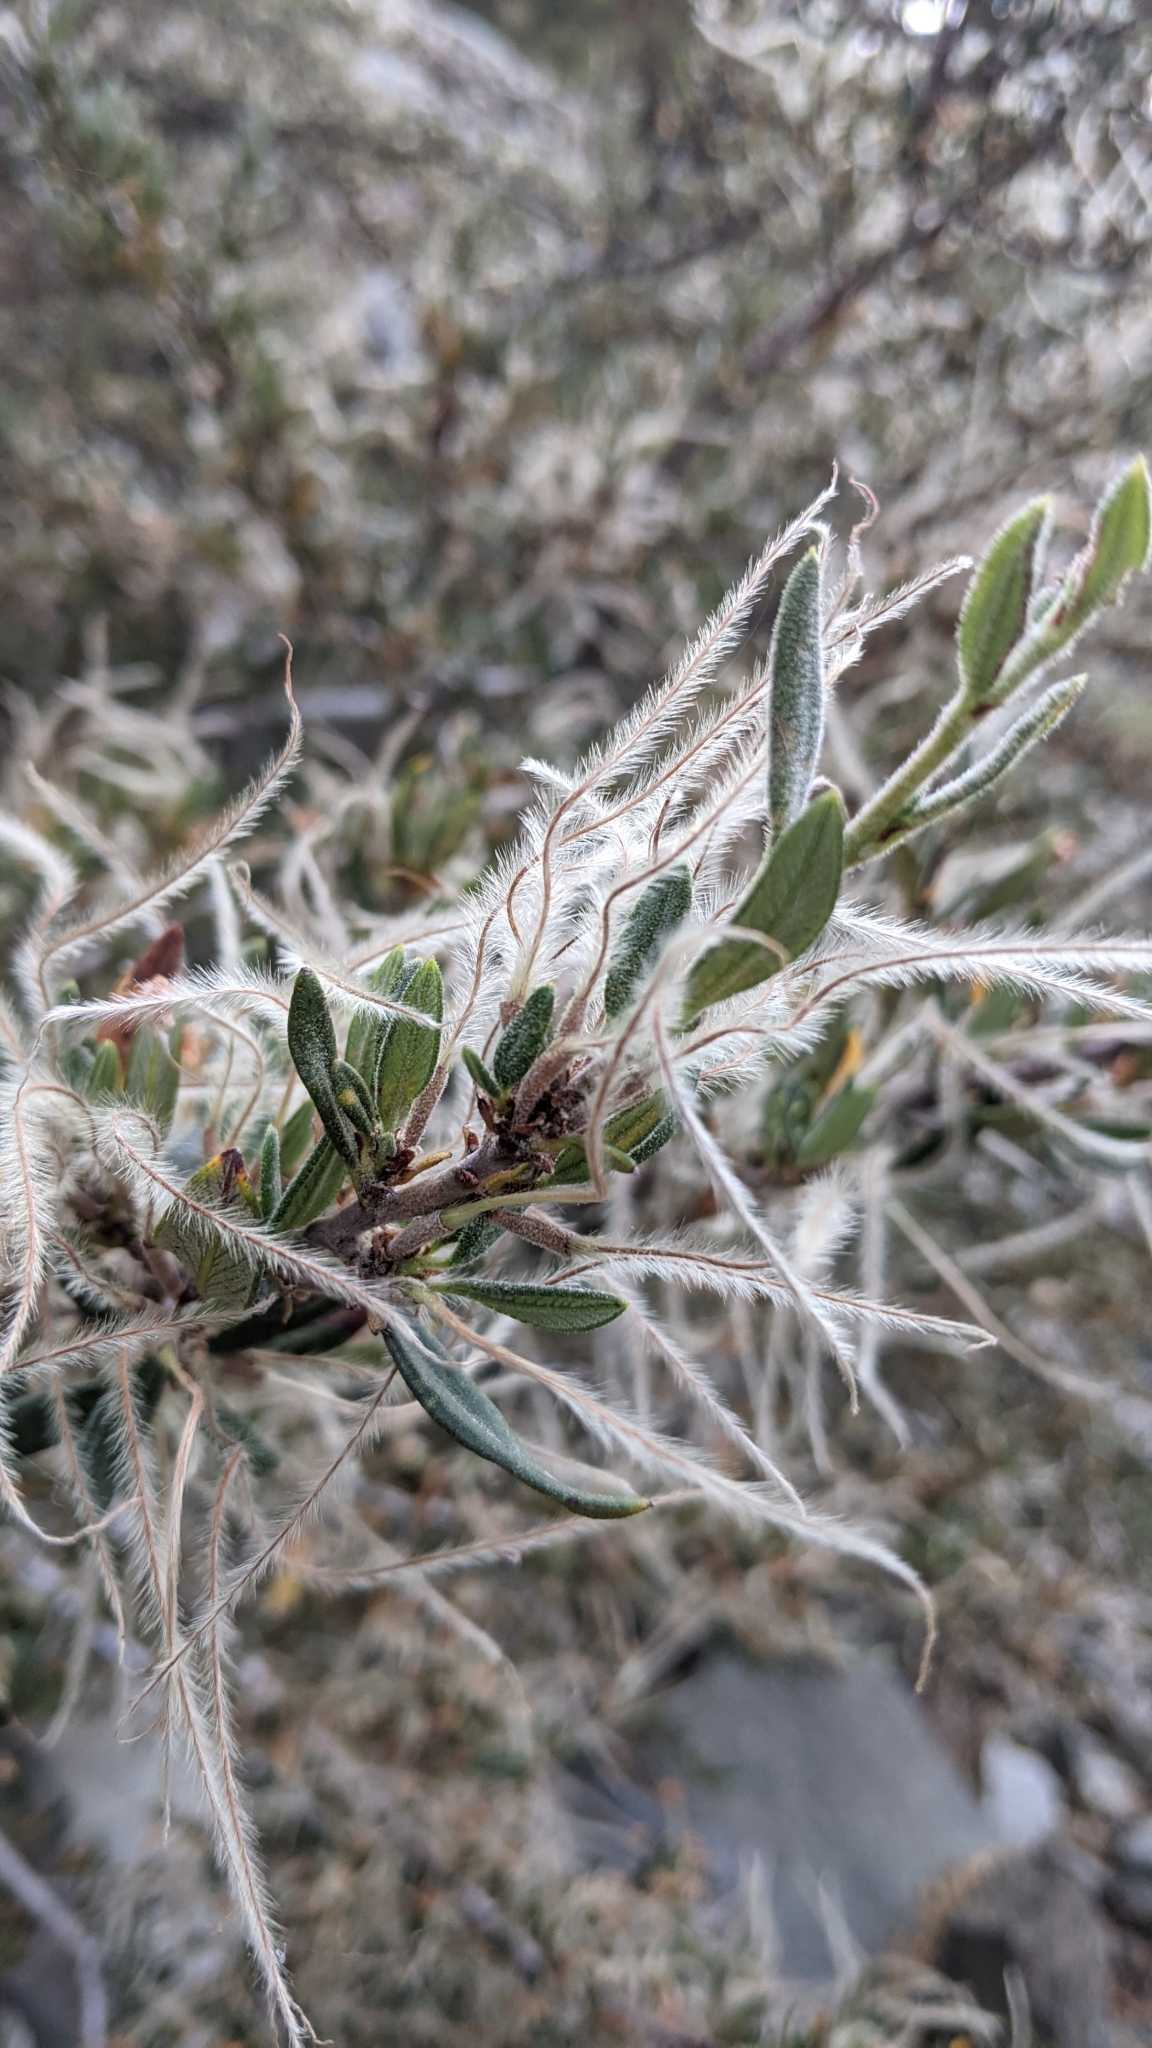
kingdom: Plantae
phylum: Tracheophyta
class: Magnoliopsida
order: Rosales
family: Rosaceae
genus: Cercocarpus
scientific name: Cercocarpus ledifolius
